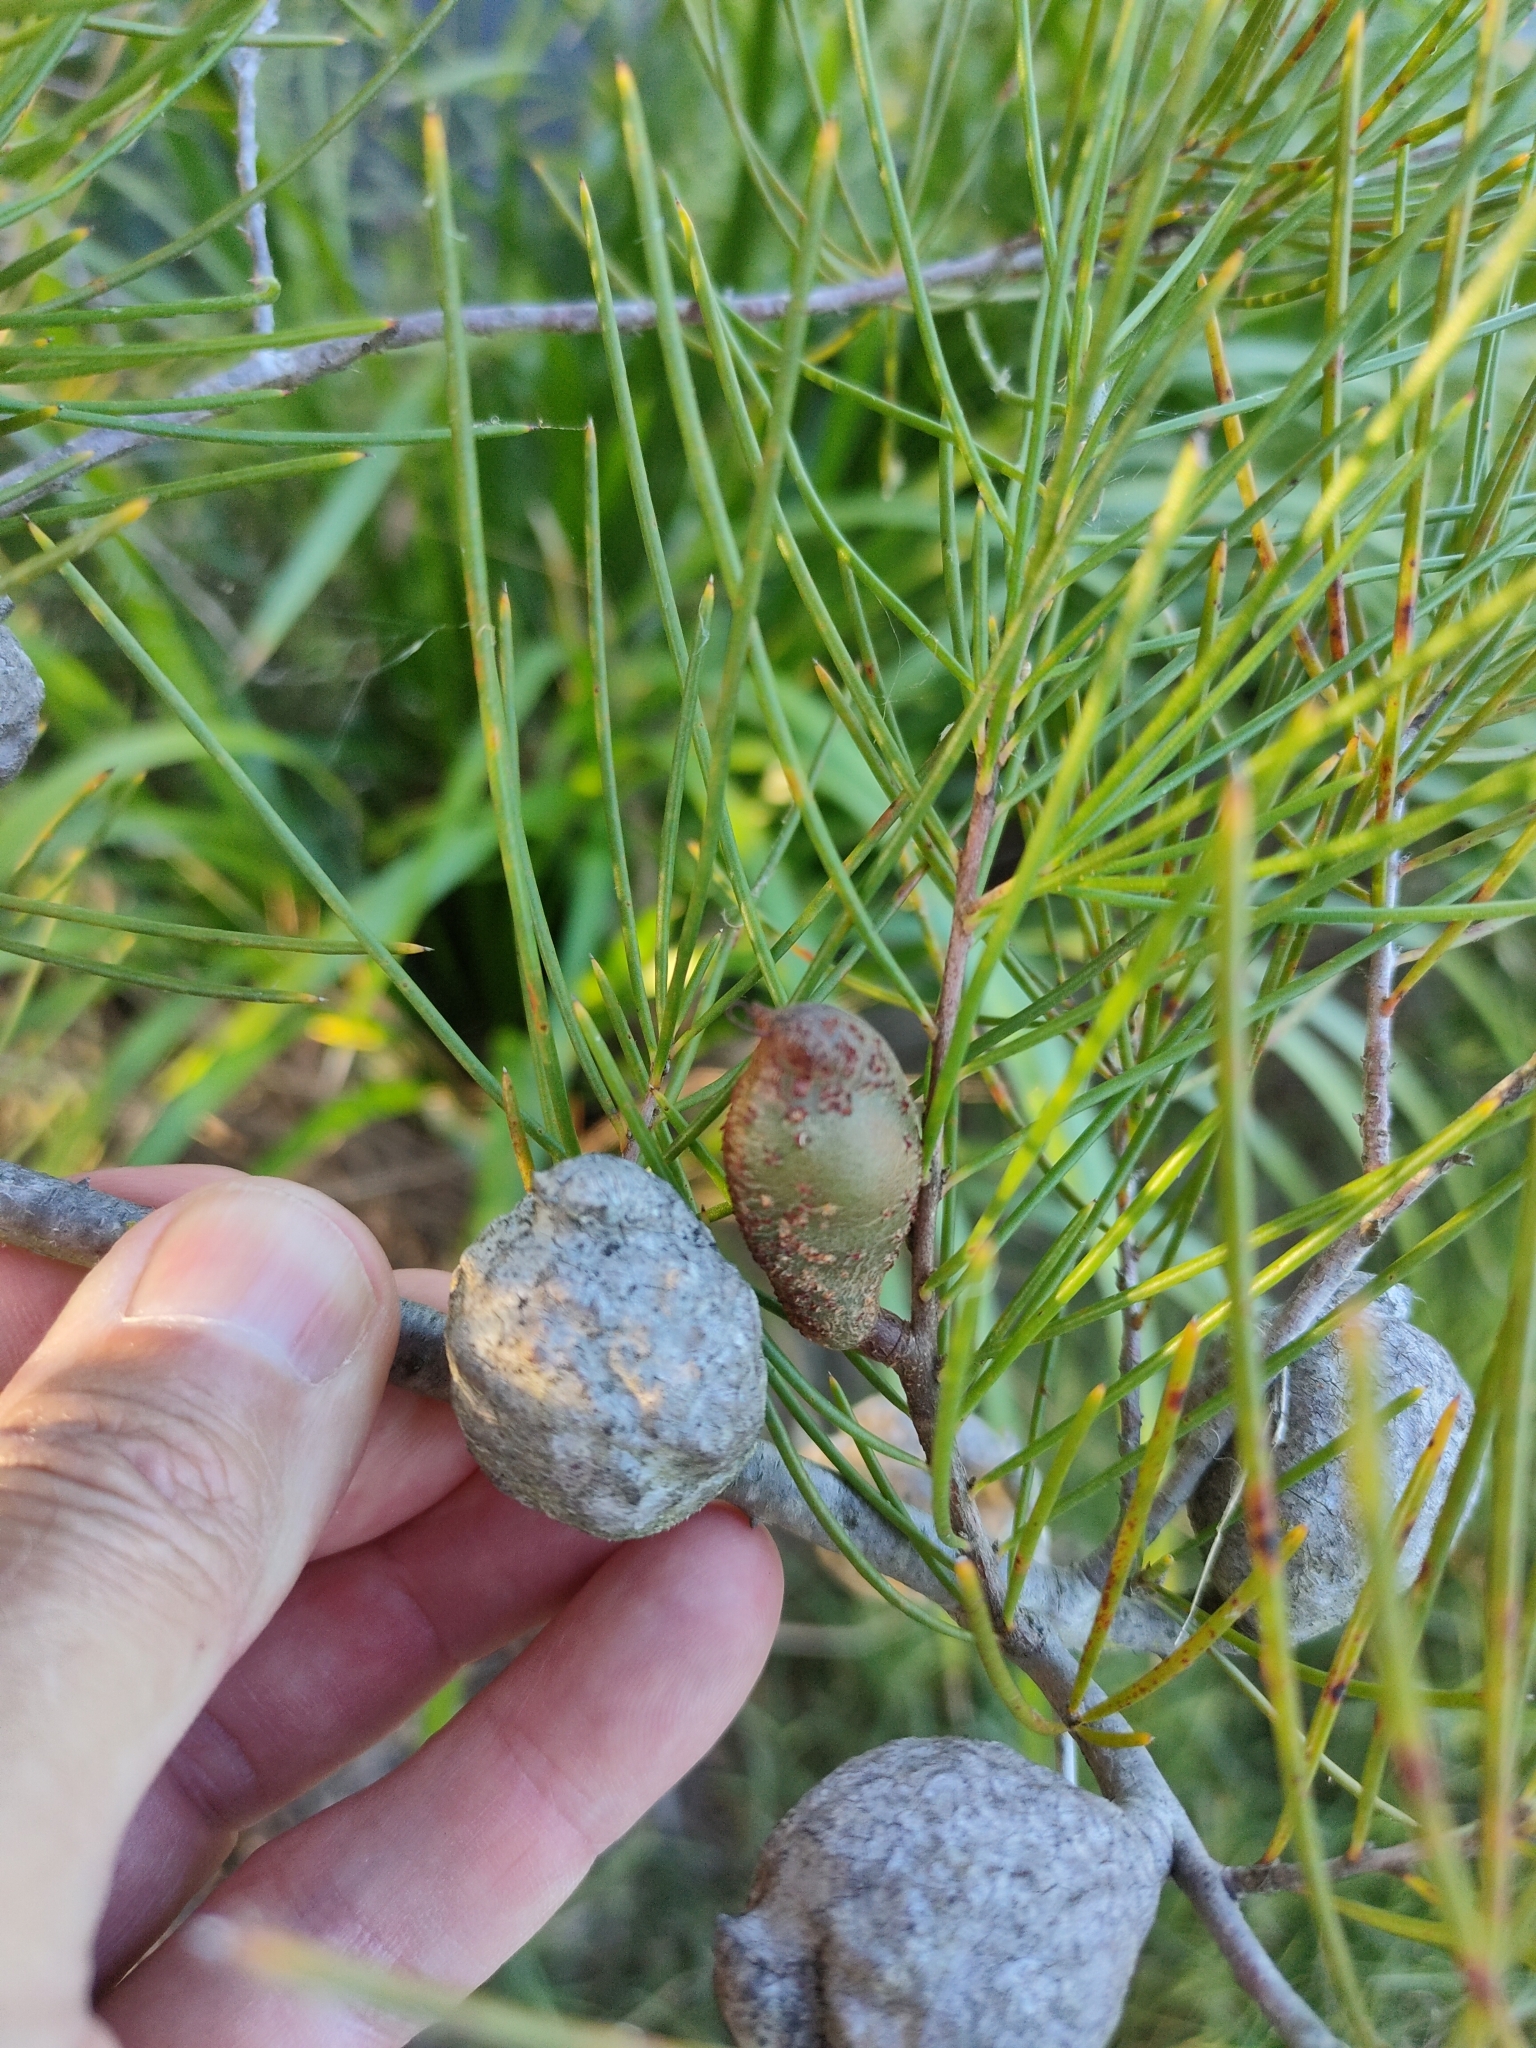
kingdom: Plantae
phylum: Tracheophyta
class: Magnoliopsida
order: Proteales
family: Proteaceae
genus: Hakea
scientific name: Hakea actites
